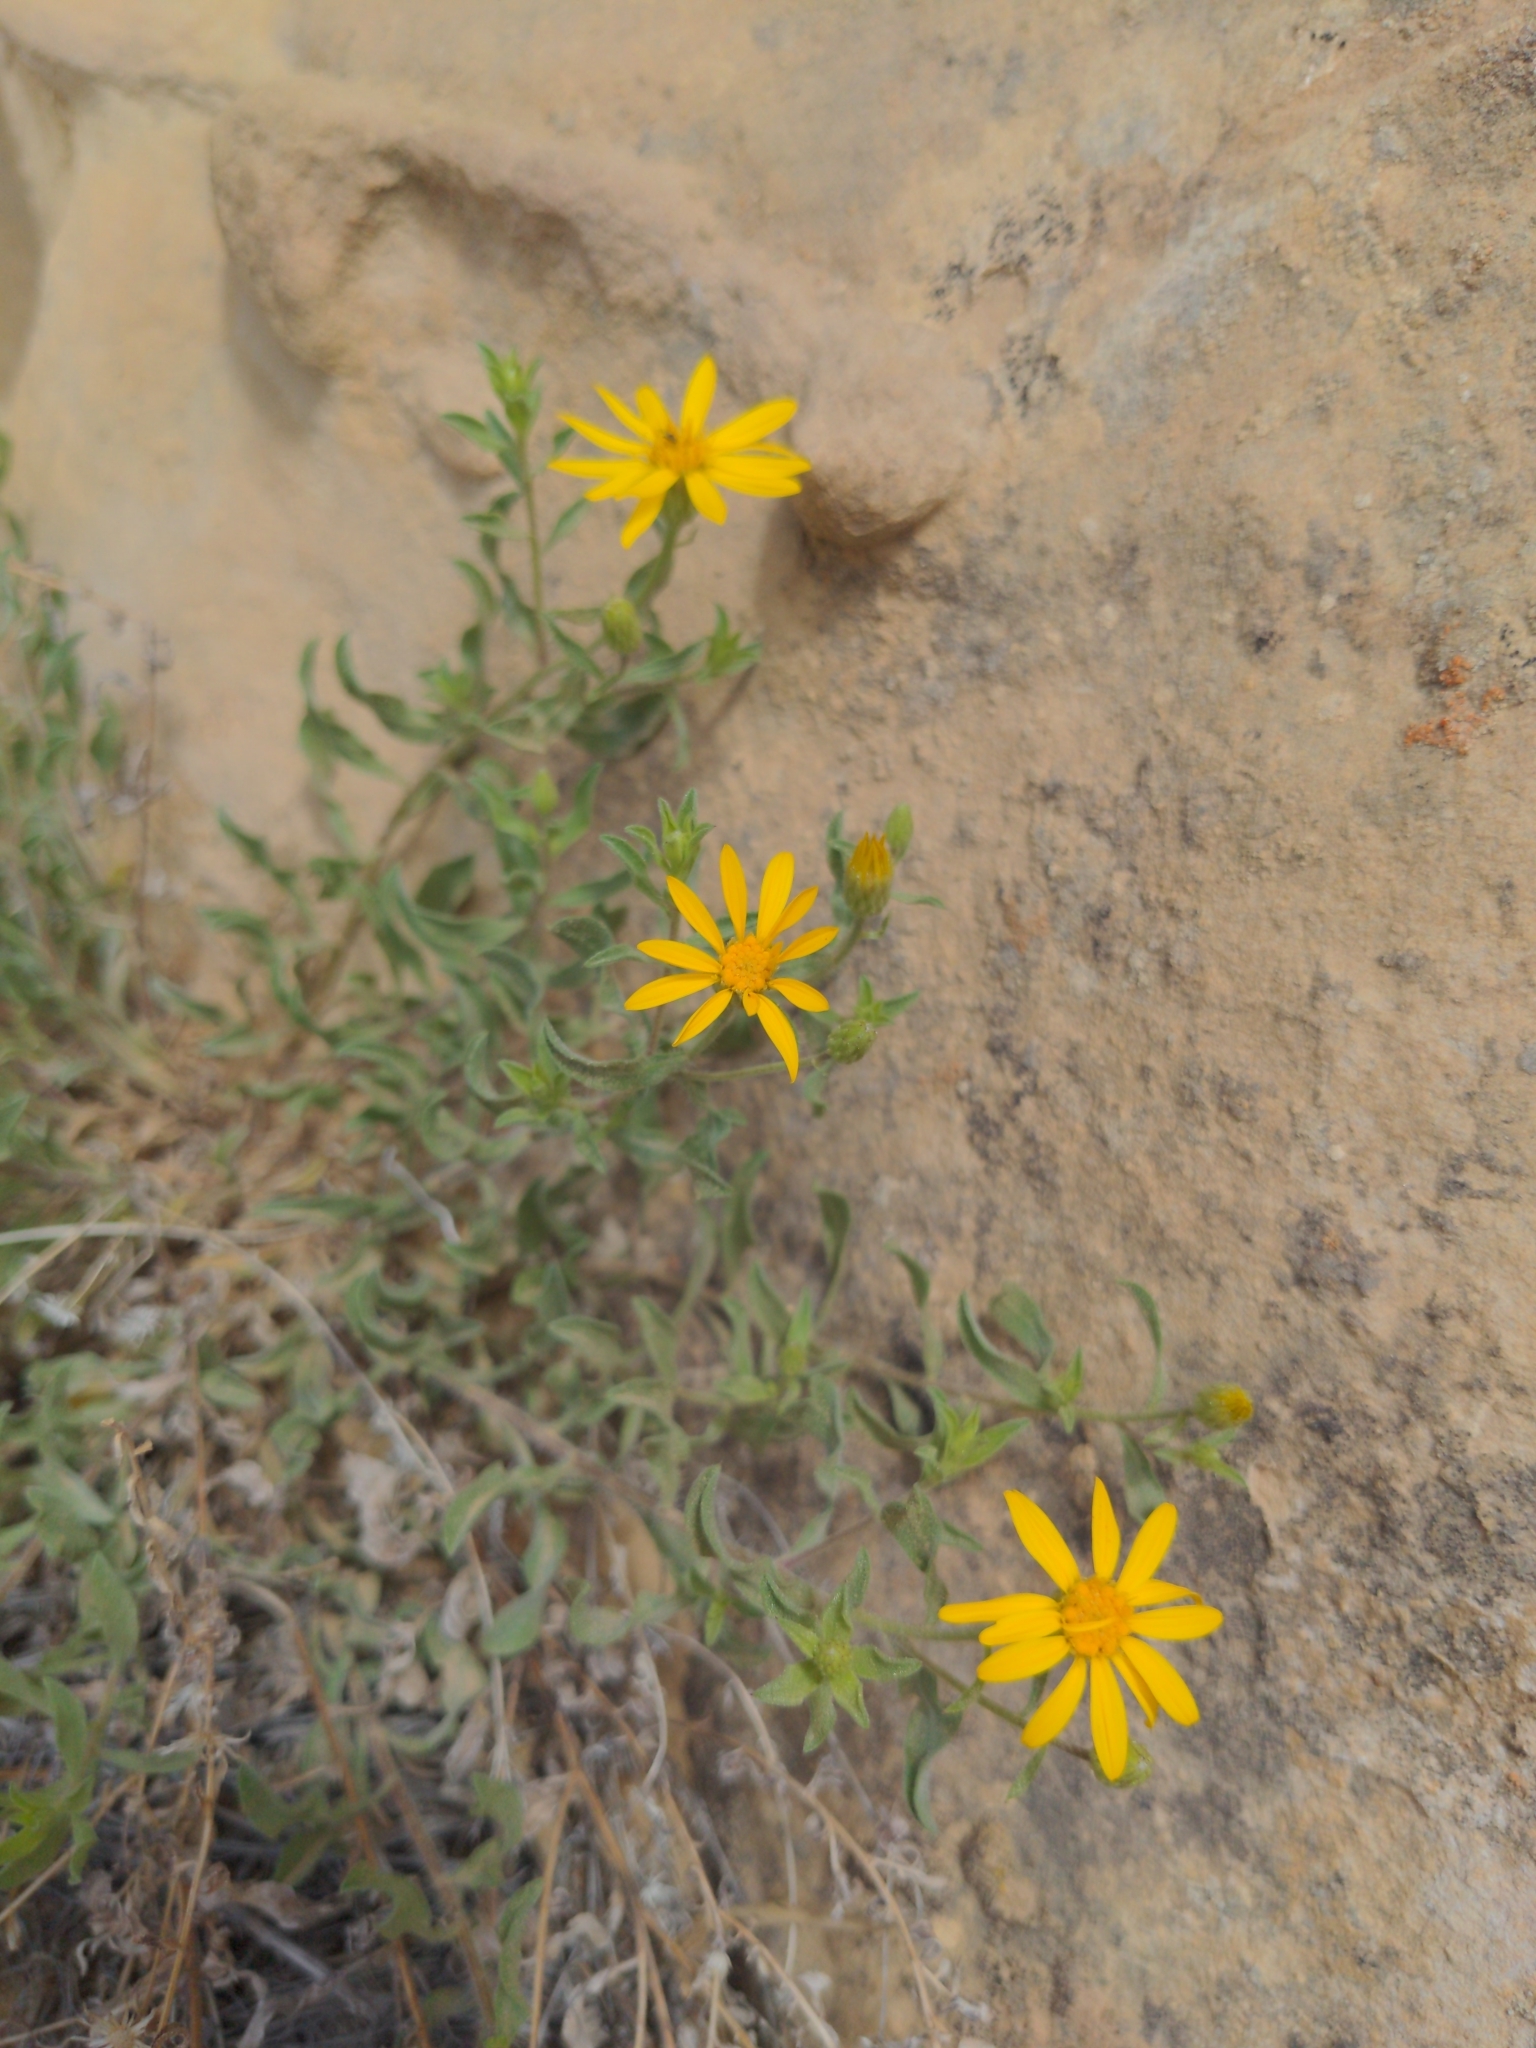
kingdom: Plantae
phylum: Tracheophyta
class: Magnoliopsida
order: Asterales
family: Asteraceae
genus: Heterotheca
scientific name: Heterotheca polothrix
